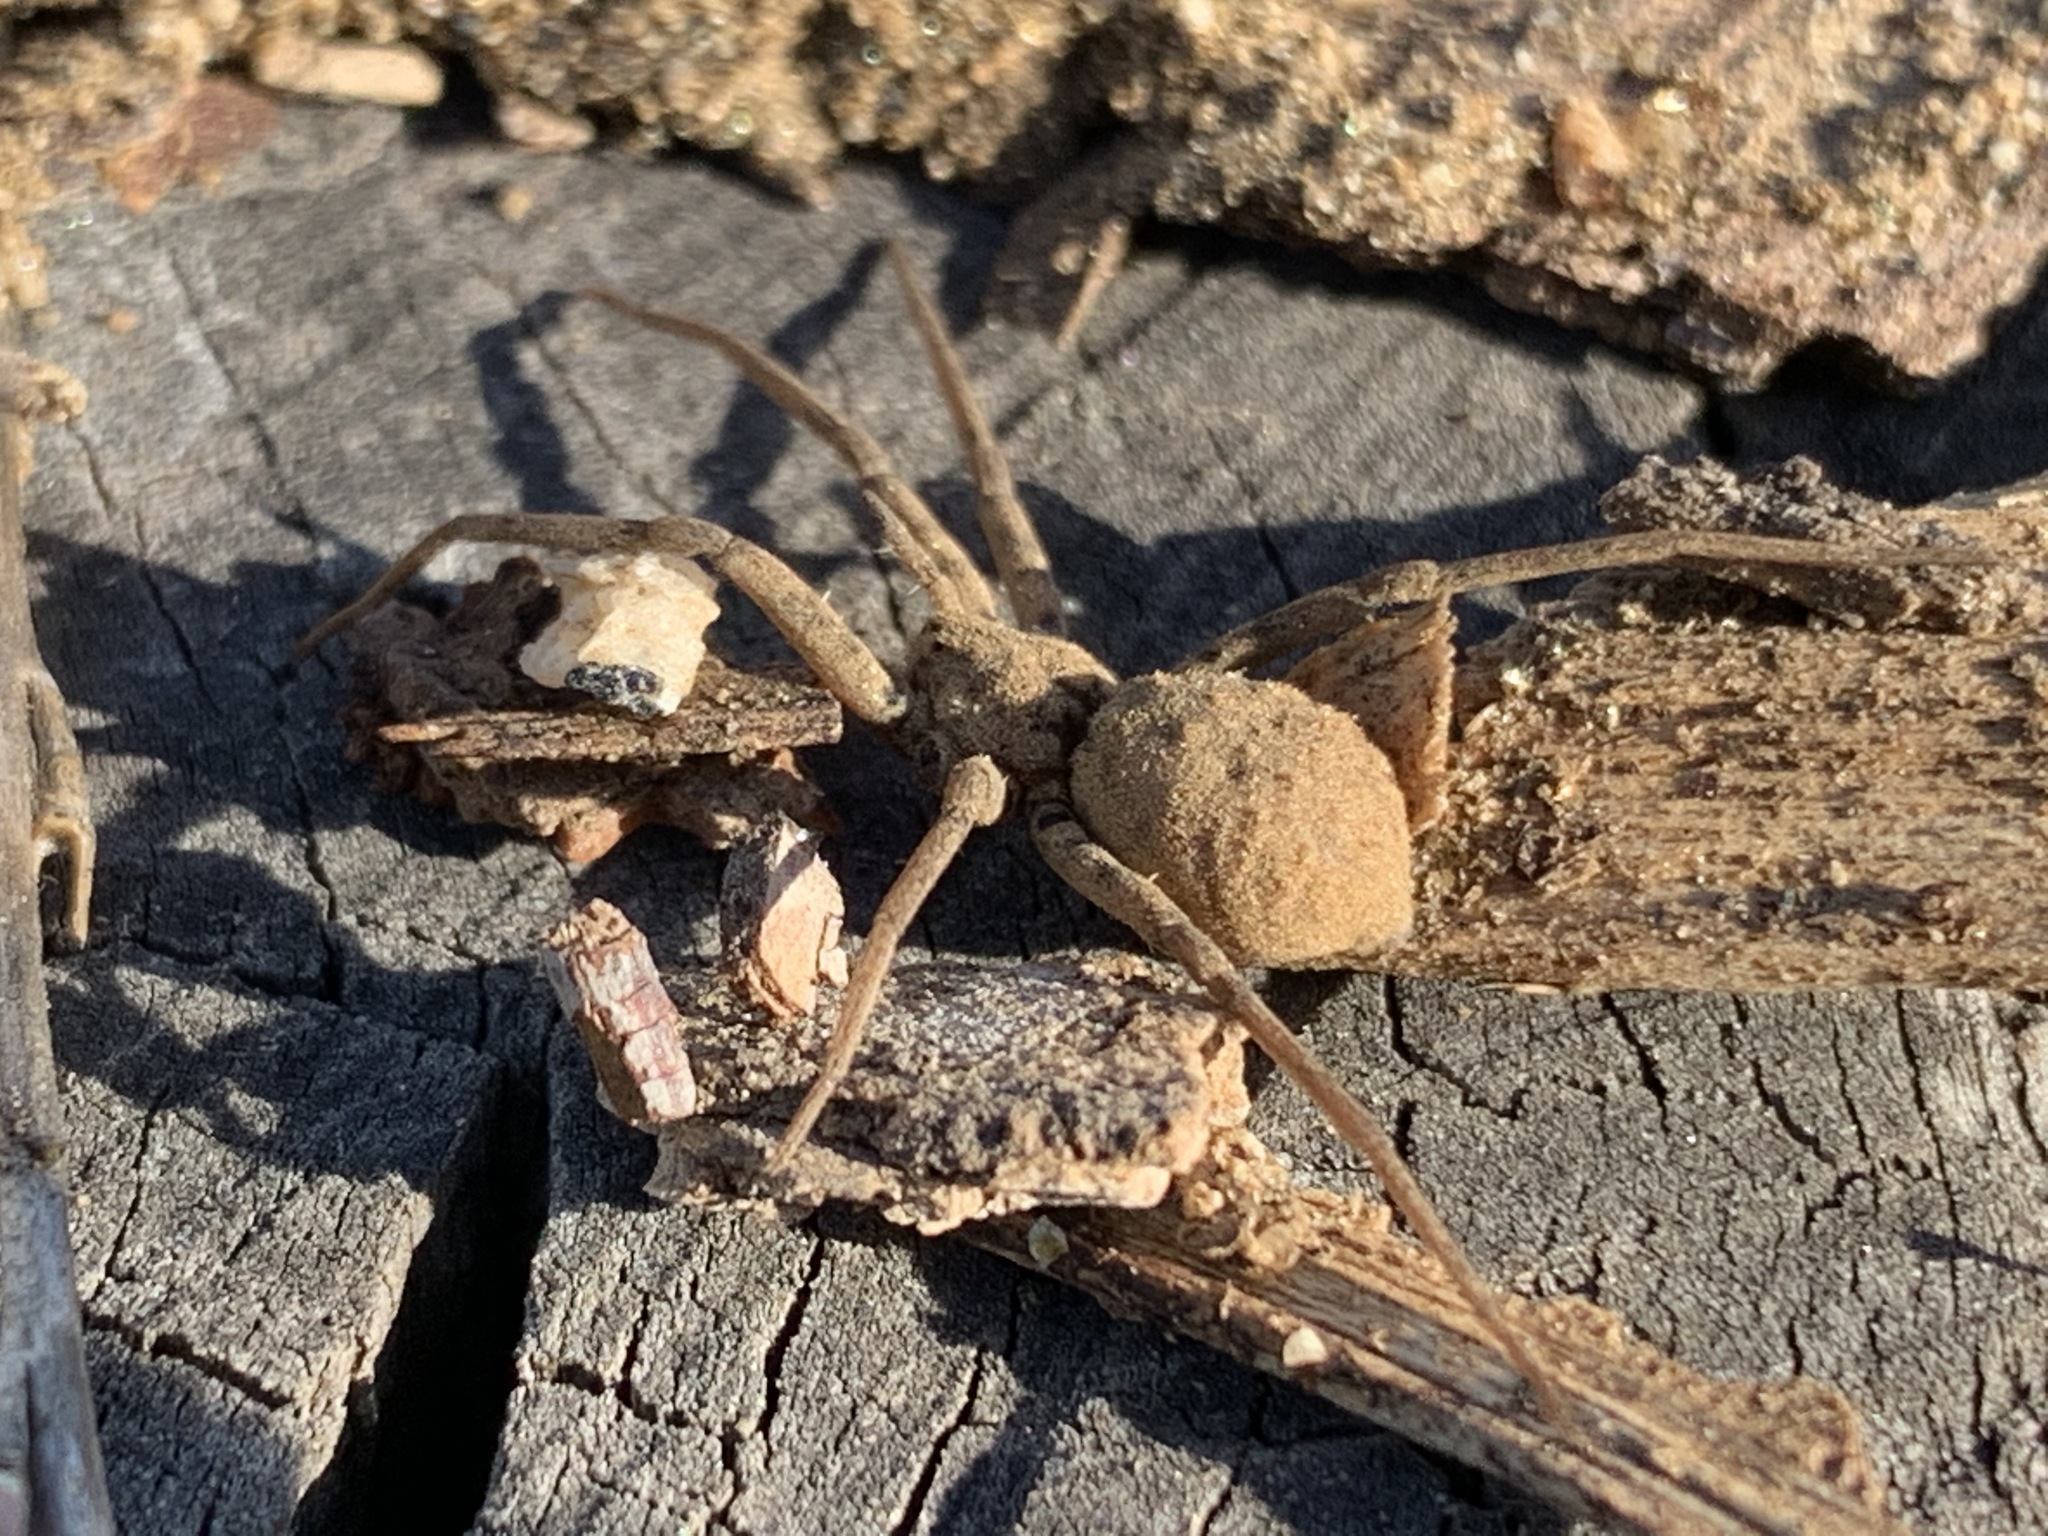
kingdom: Animalia
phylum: Arthropoda
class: Arachnida
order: Araneae
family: Homalonychidae
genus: Homalonychus
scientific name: Homalonychus theologus
